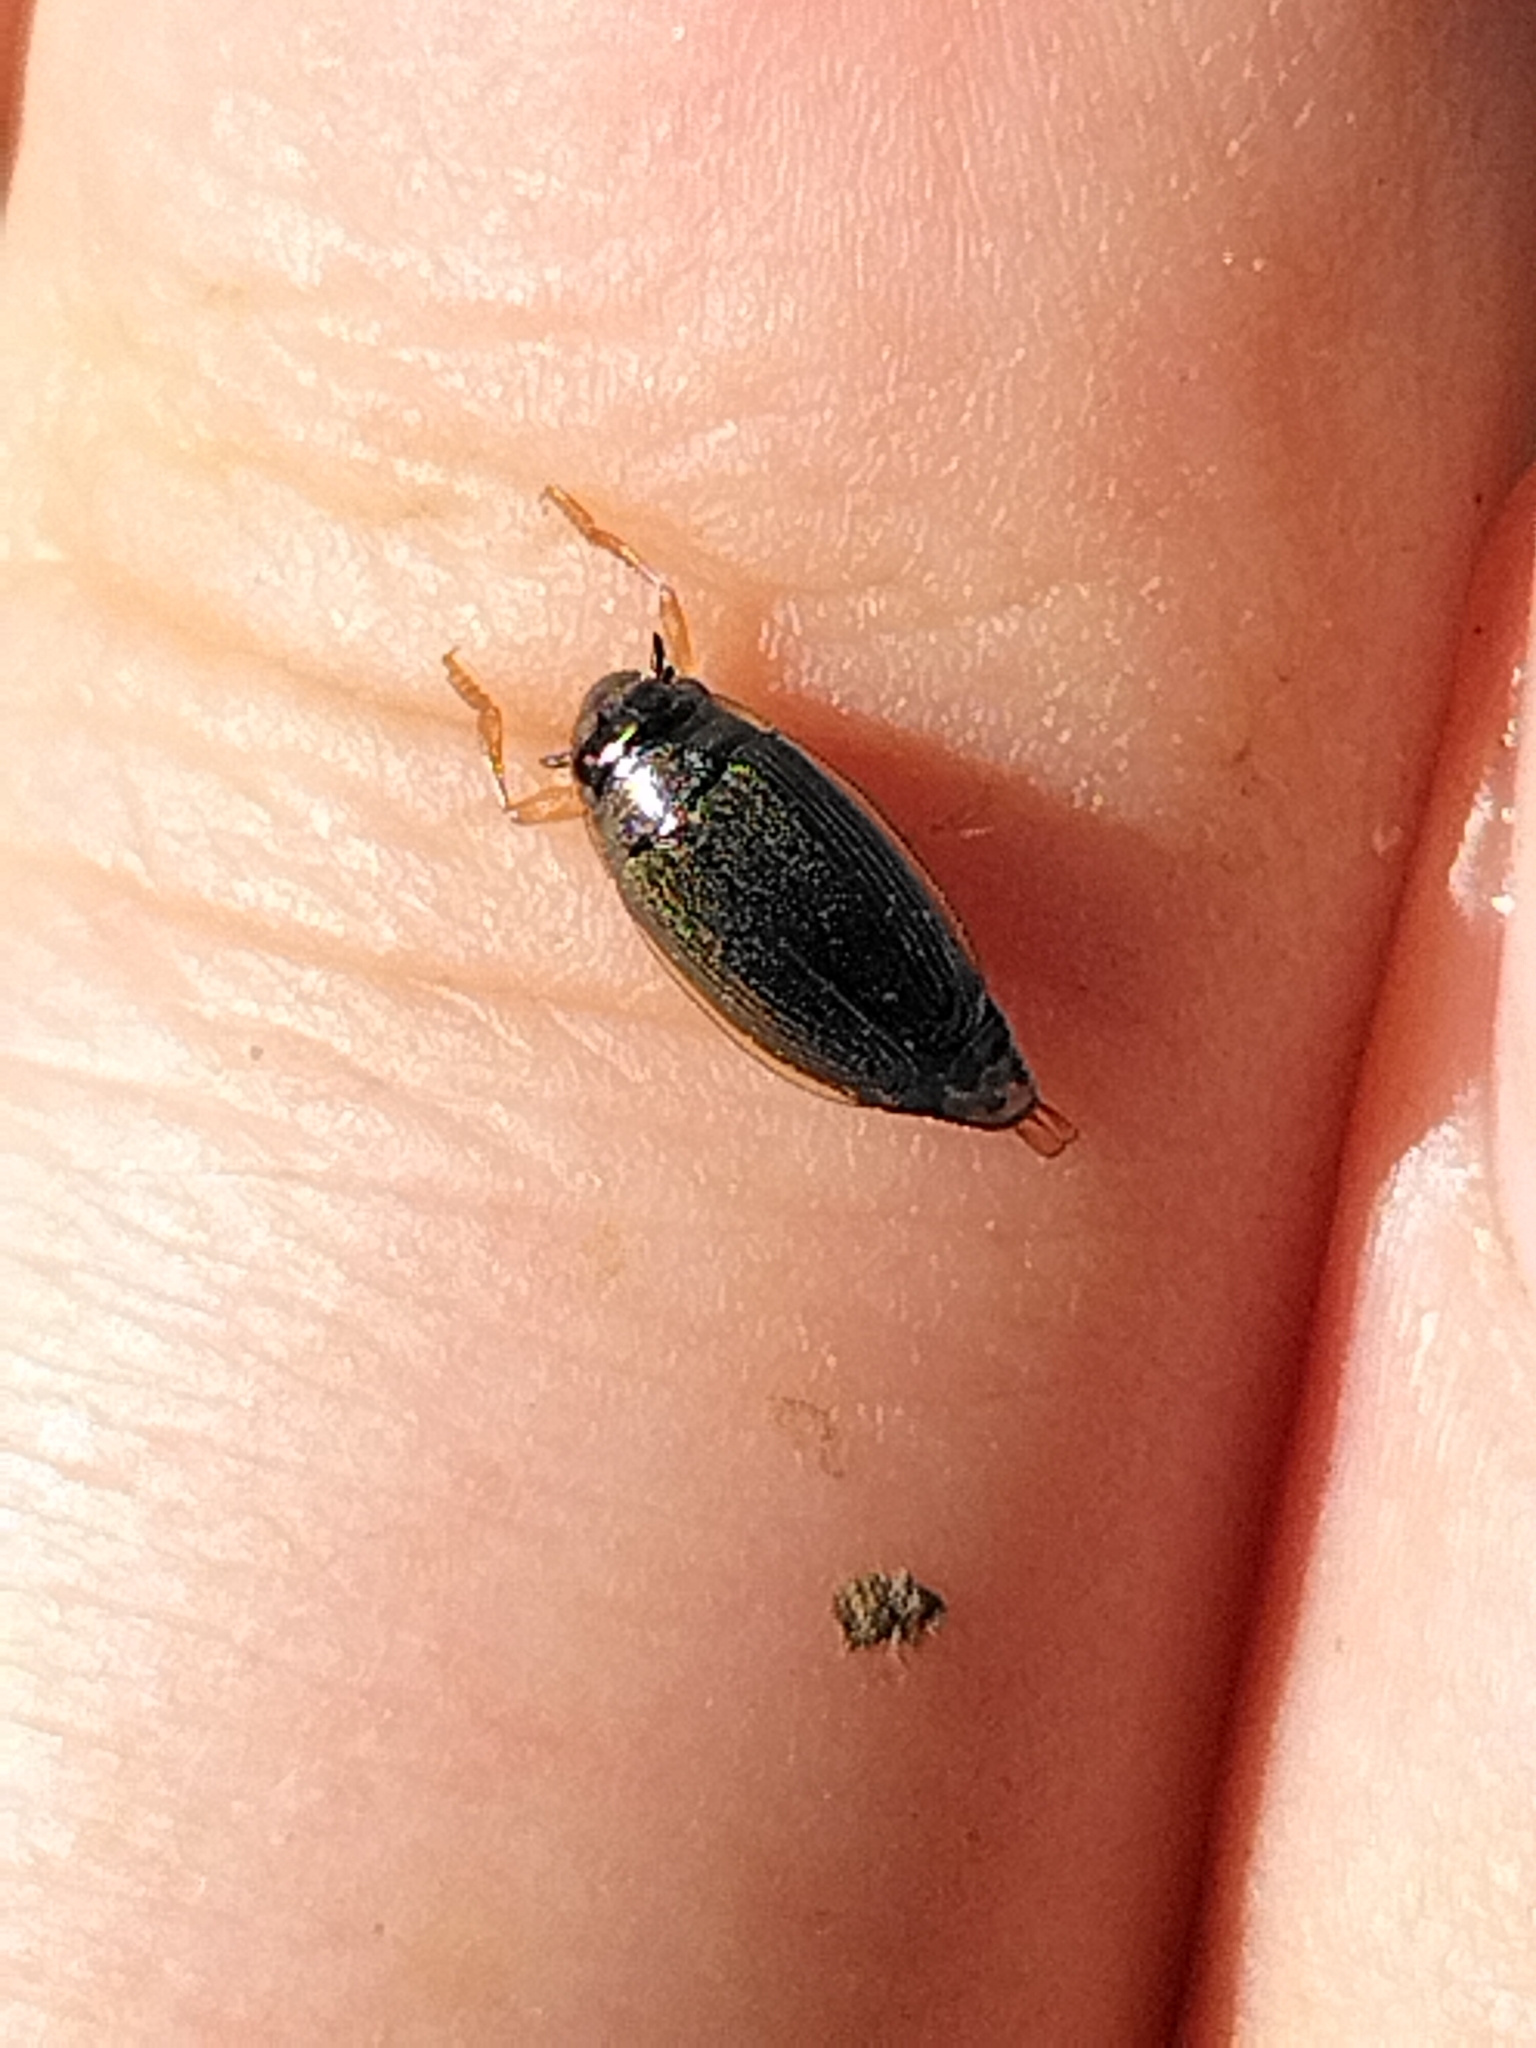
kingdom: Animalia
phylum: Arthropoda
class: Insecta
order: Coleoptera
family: Gyrinidae
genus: Aulonogyrus
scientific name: Aulonogyrus
